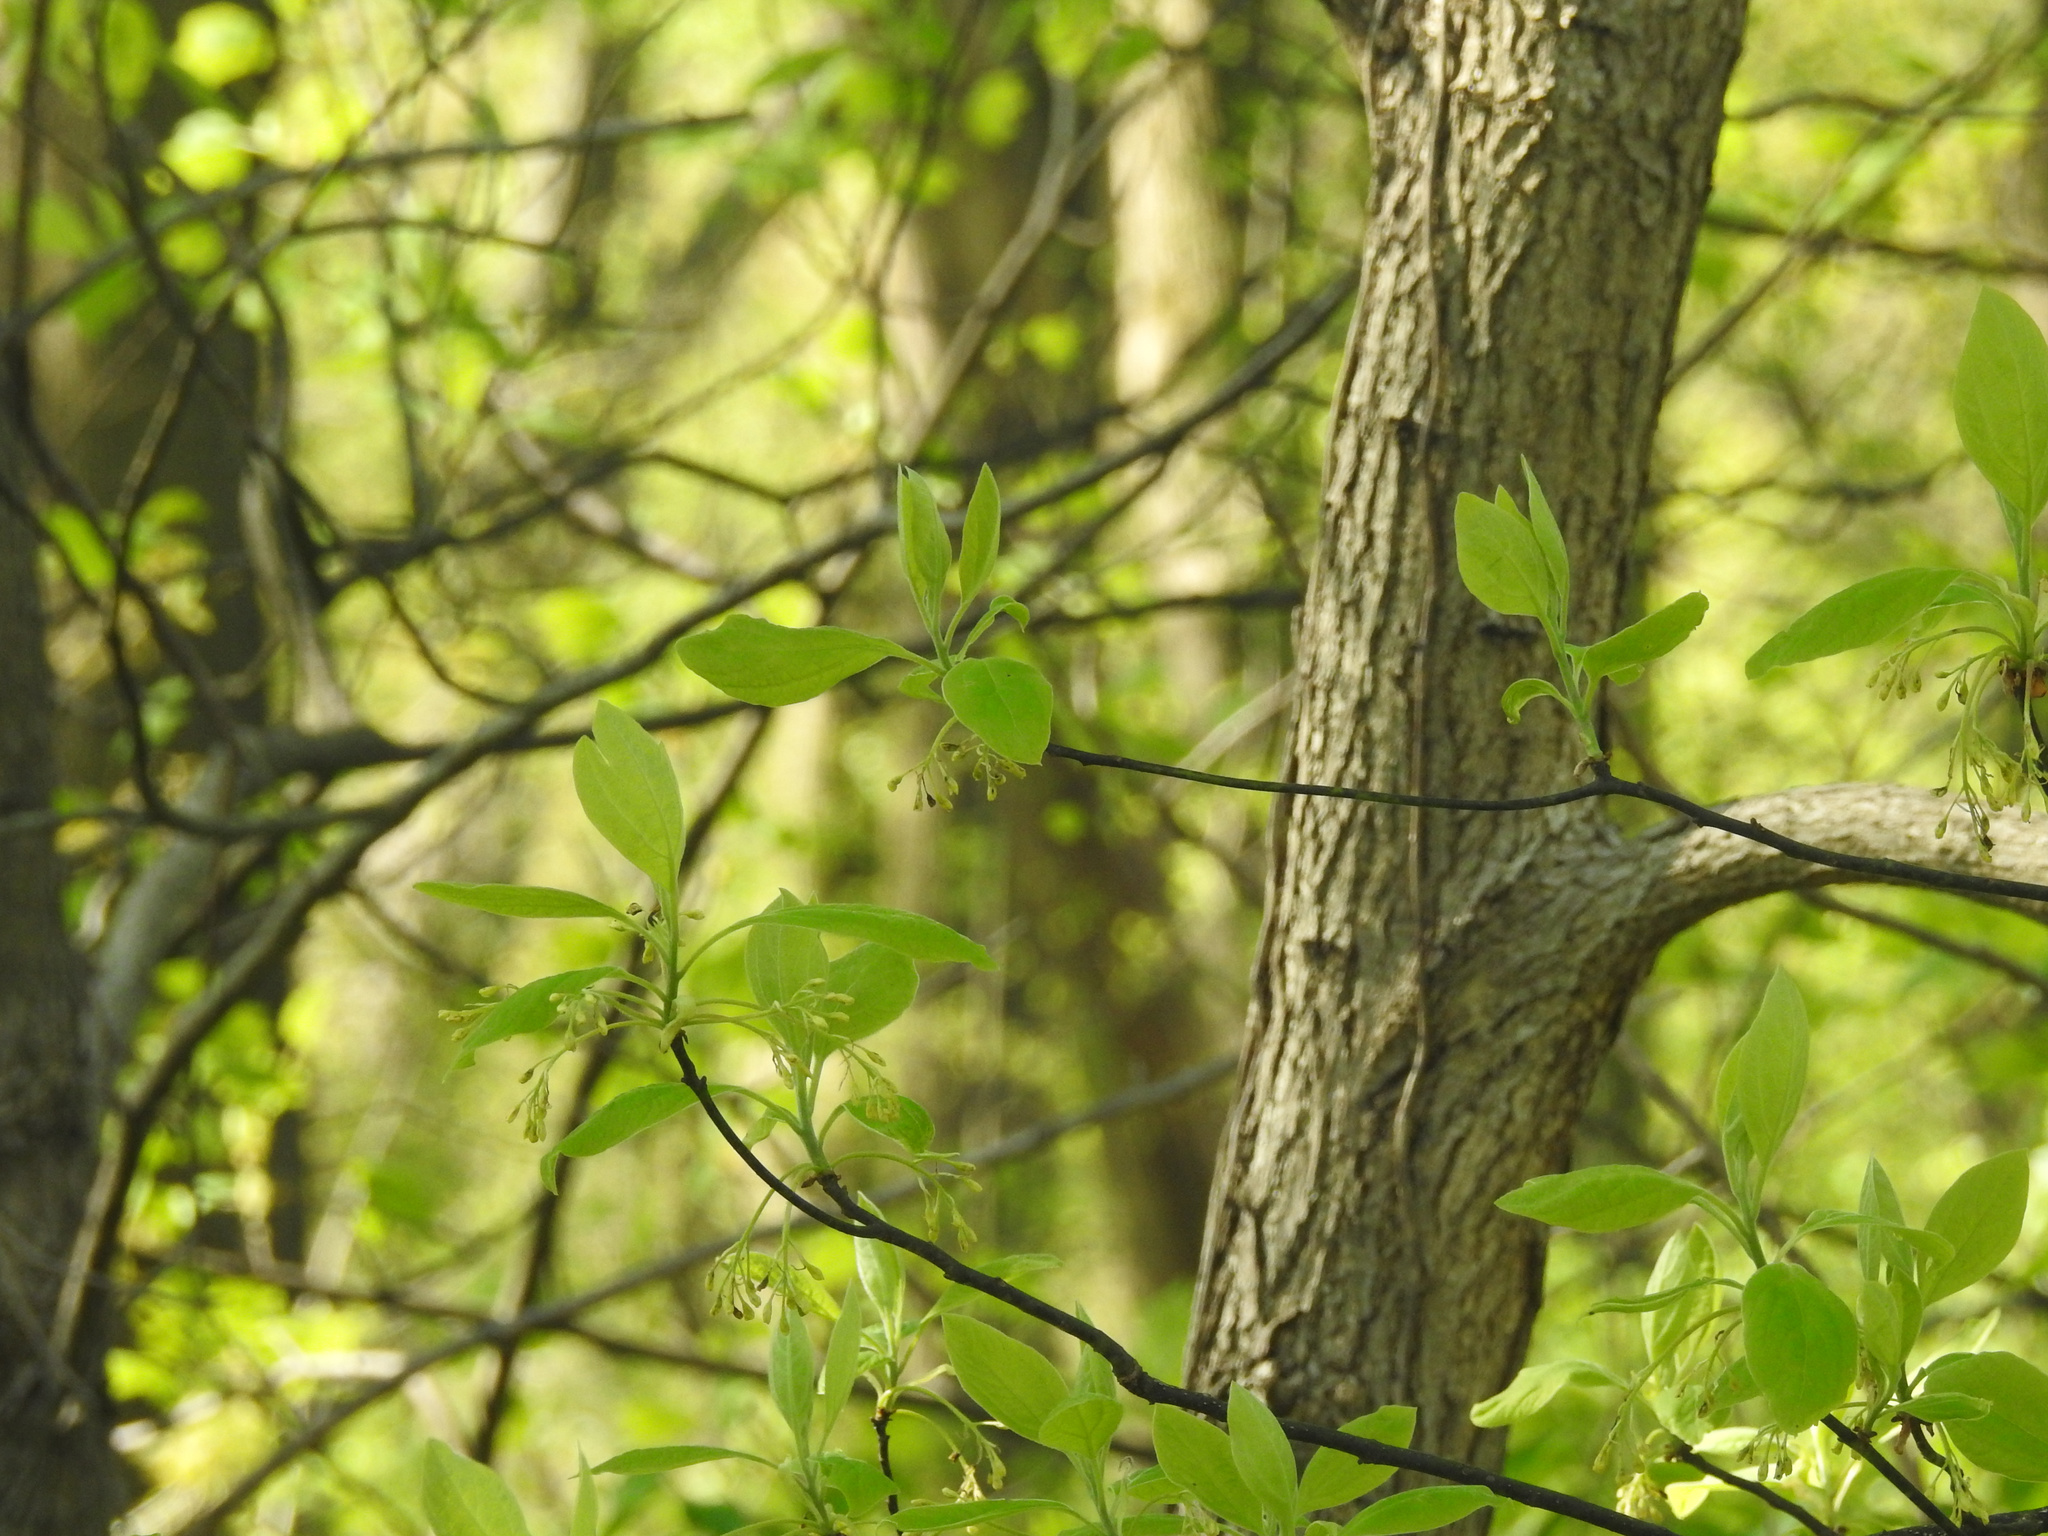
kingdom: Plantae
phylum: Tracheophyta
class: Magnoliopsida
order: Laurales
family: Lauraceae
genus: Sassafras
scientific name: Sassafras albidum
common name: Sassafras
